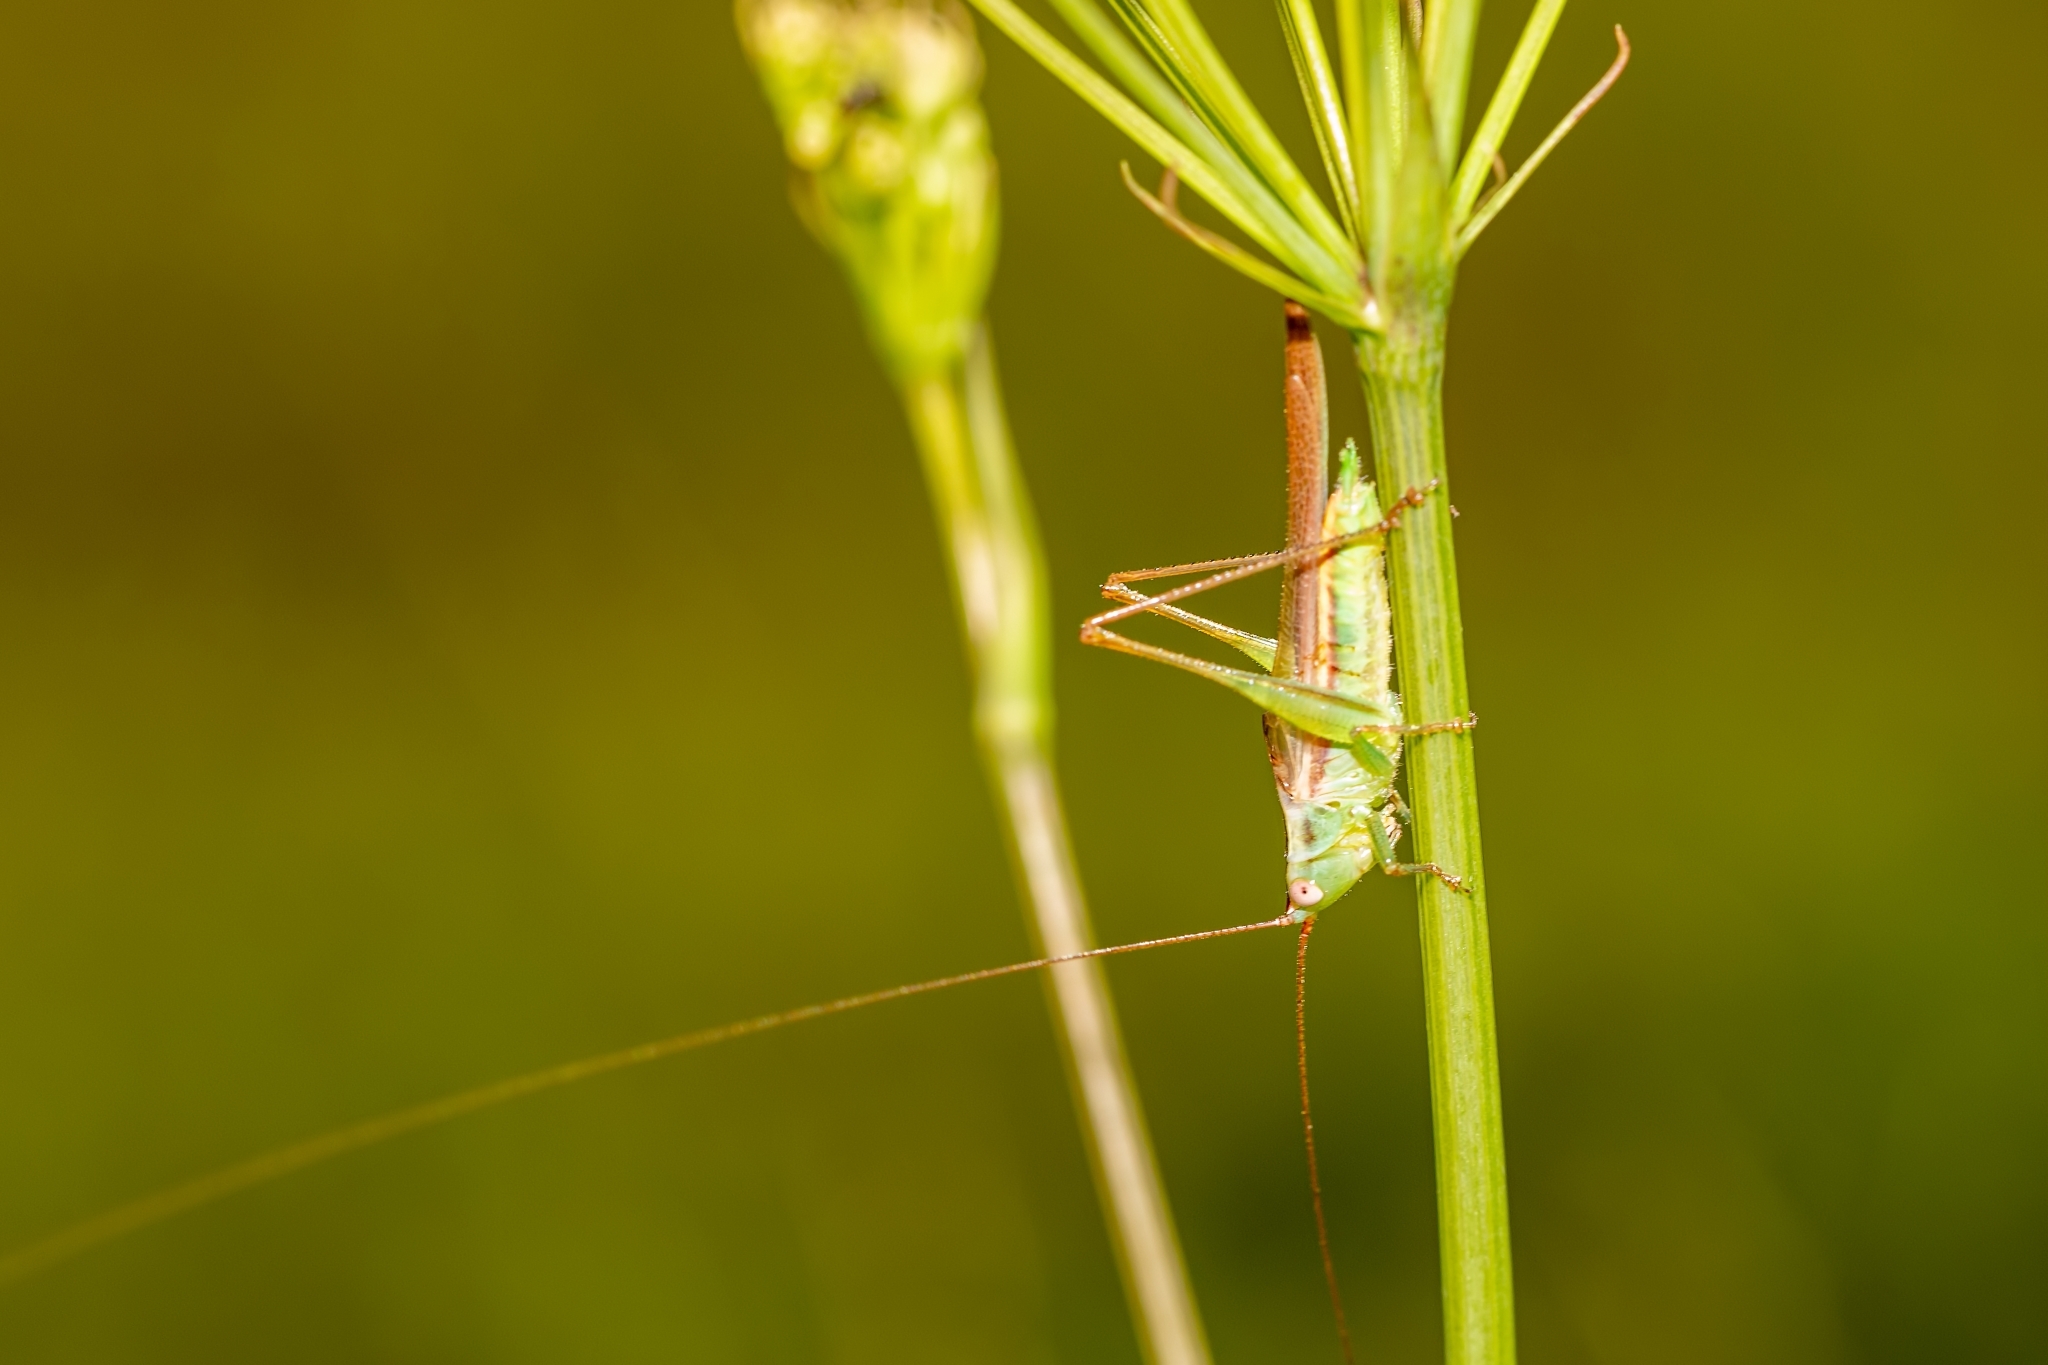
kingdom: Animalia
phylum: Arthropoda
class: Insecta
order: Orthoptera
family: Tettigoniidae
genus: Conocephalus
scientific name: Conocephalus gracillimus
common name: Graceful meadow katydid
